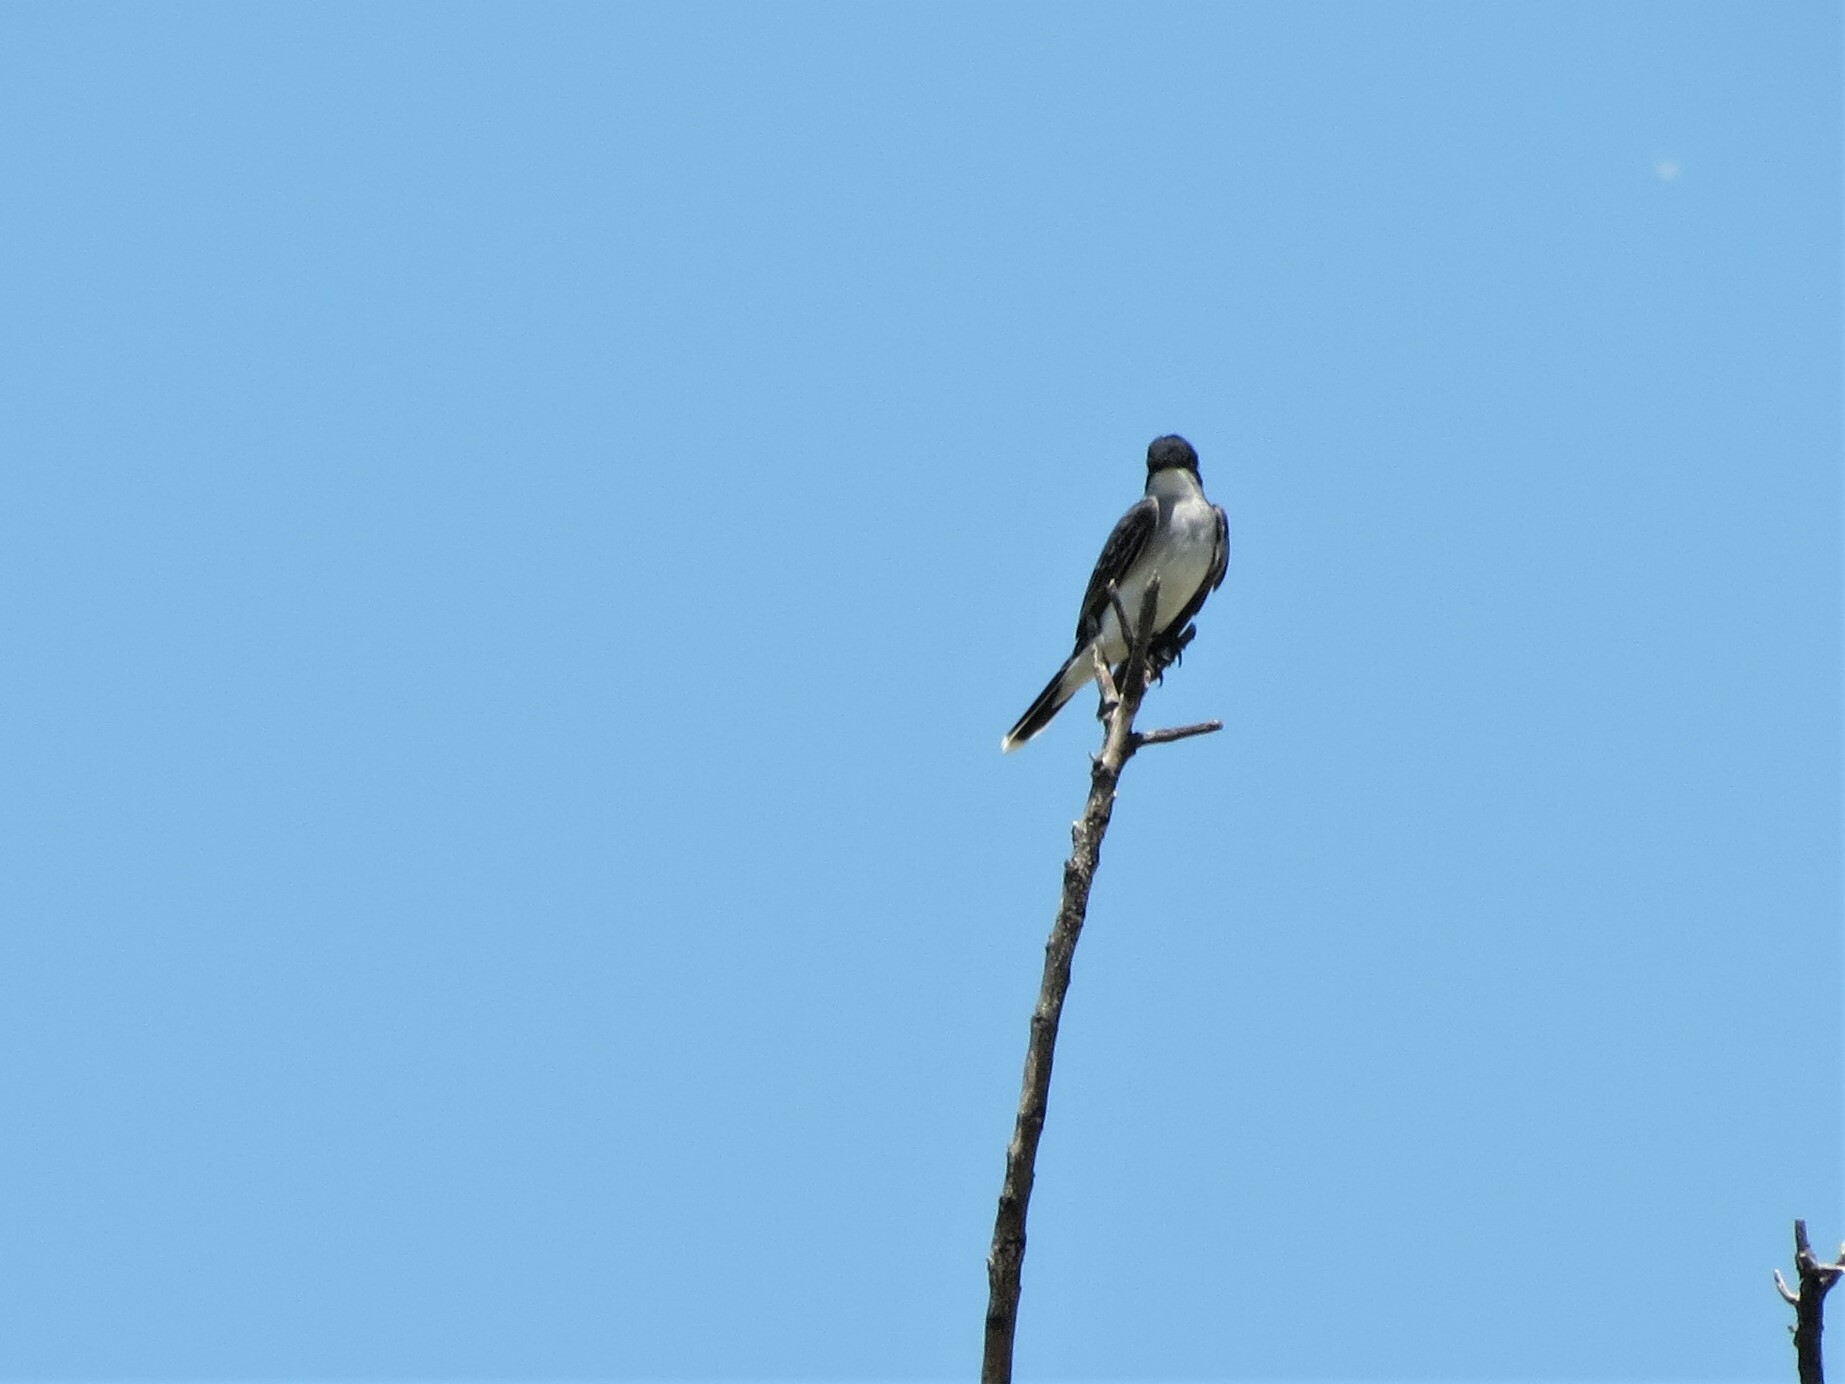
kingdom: Animalia
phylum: Chordata
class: Aves
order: Passeriformes
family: Tyrannidae
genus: Tyrannus
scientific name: Tyrannus tyrannus
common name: Eastern kingbird
